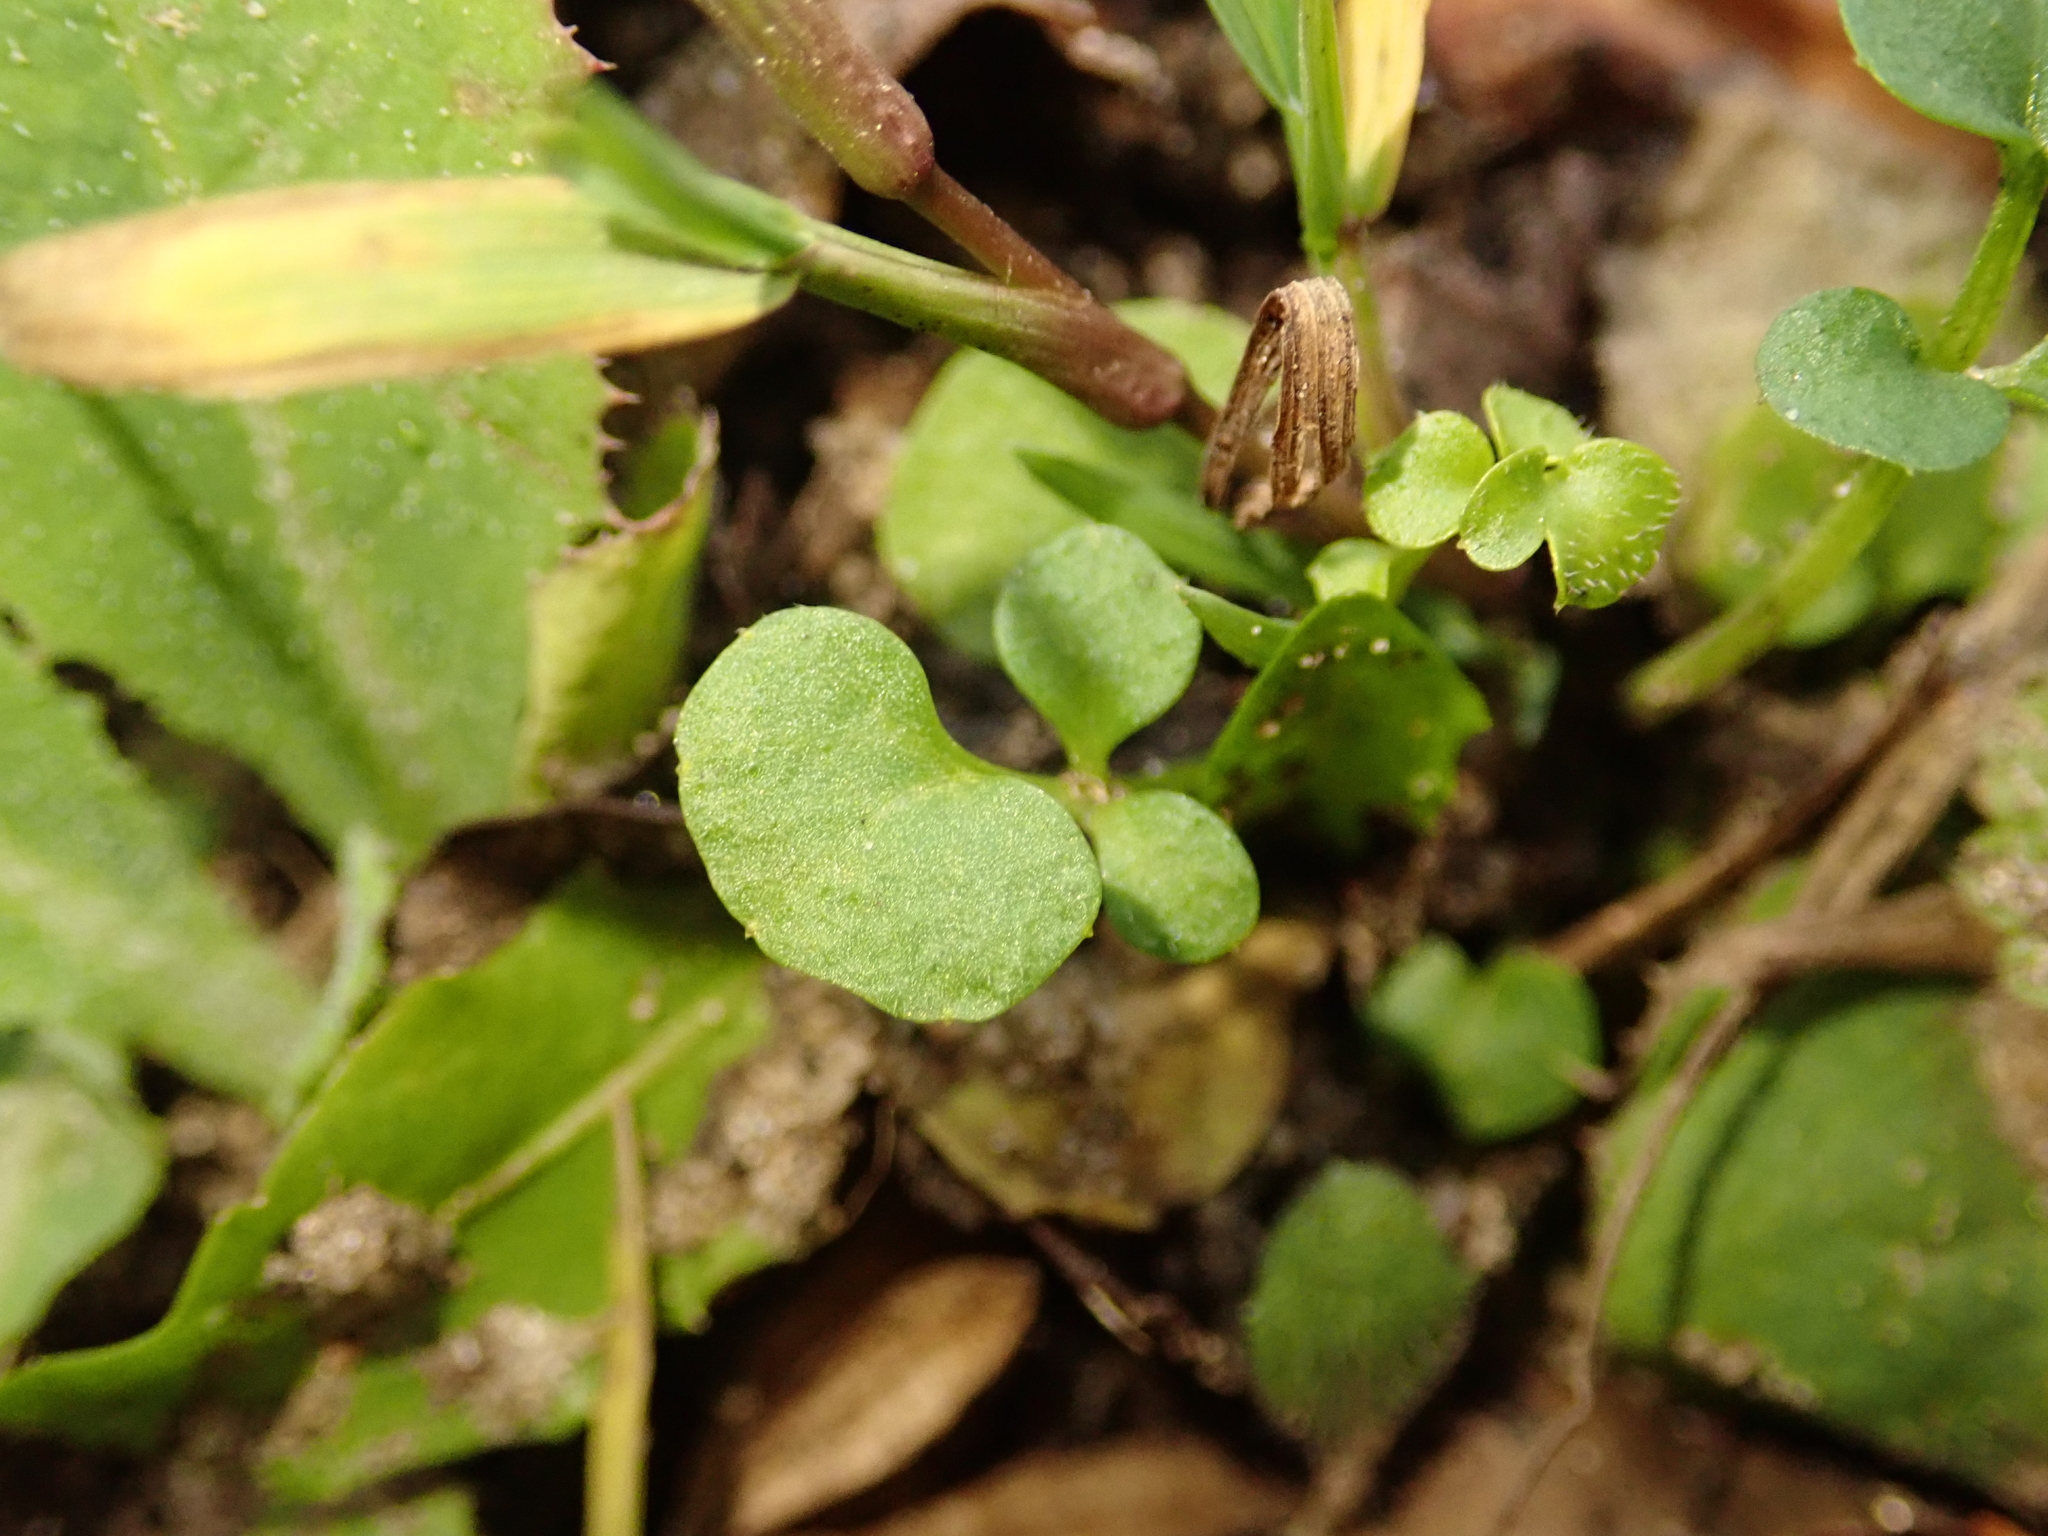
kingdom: Plantae
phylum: Tracheophyta
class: Magnoliopsida
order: Brassicales
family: Brassicaceae
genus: Cardamine
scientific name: Cardamine hirsuta
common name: Hairy bittercress
